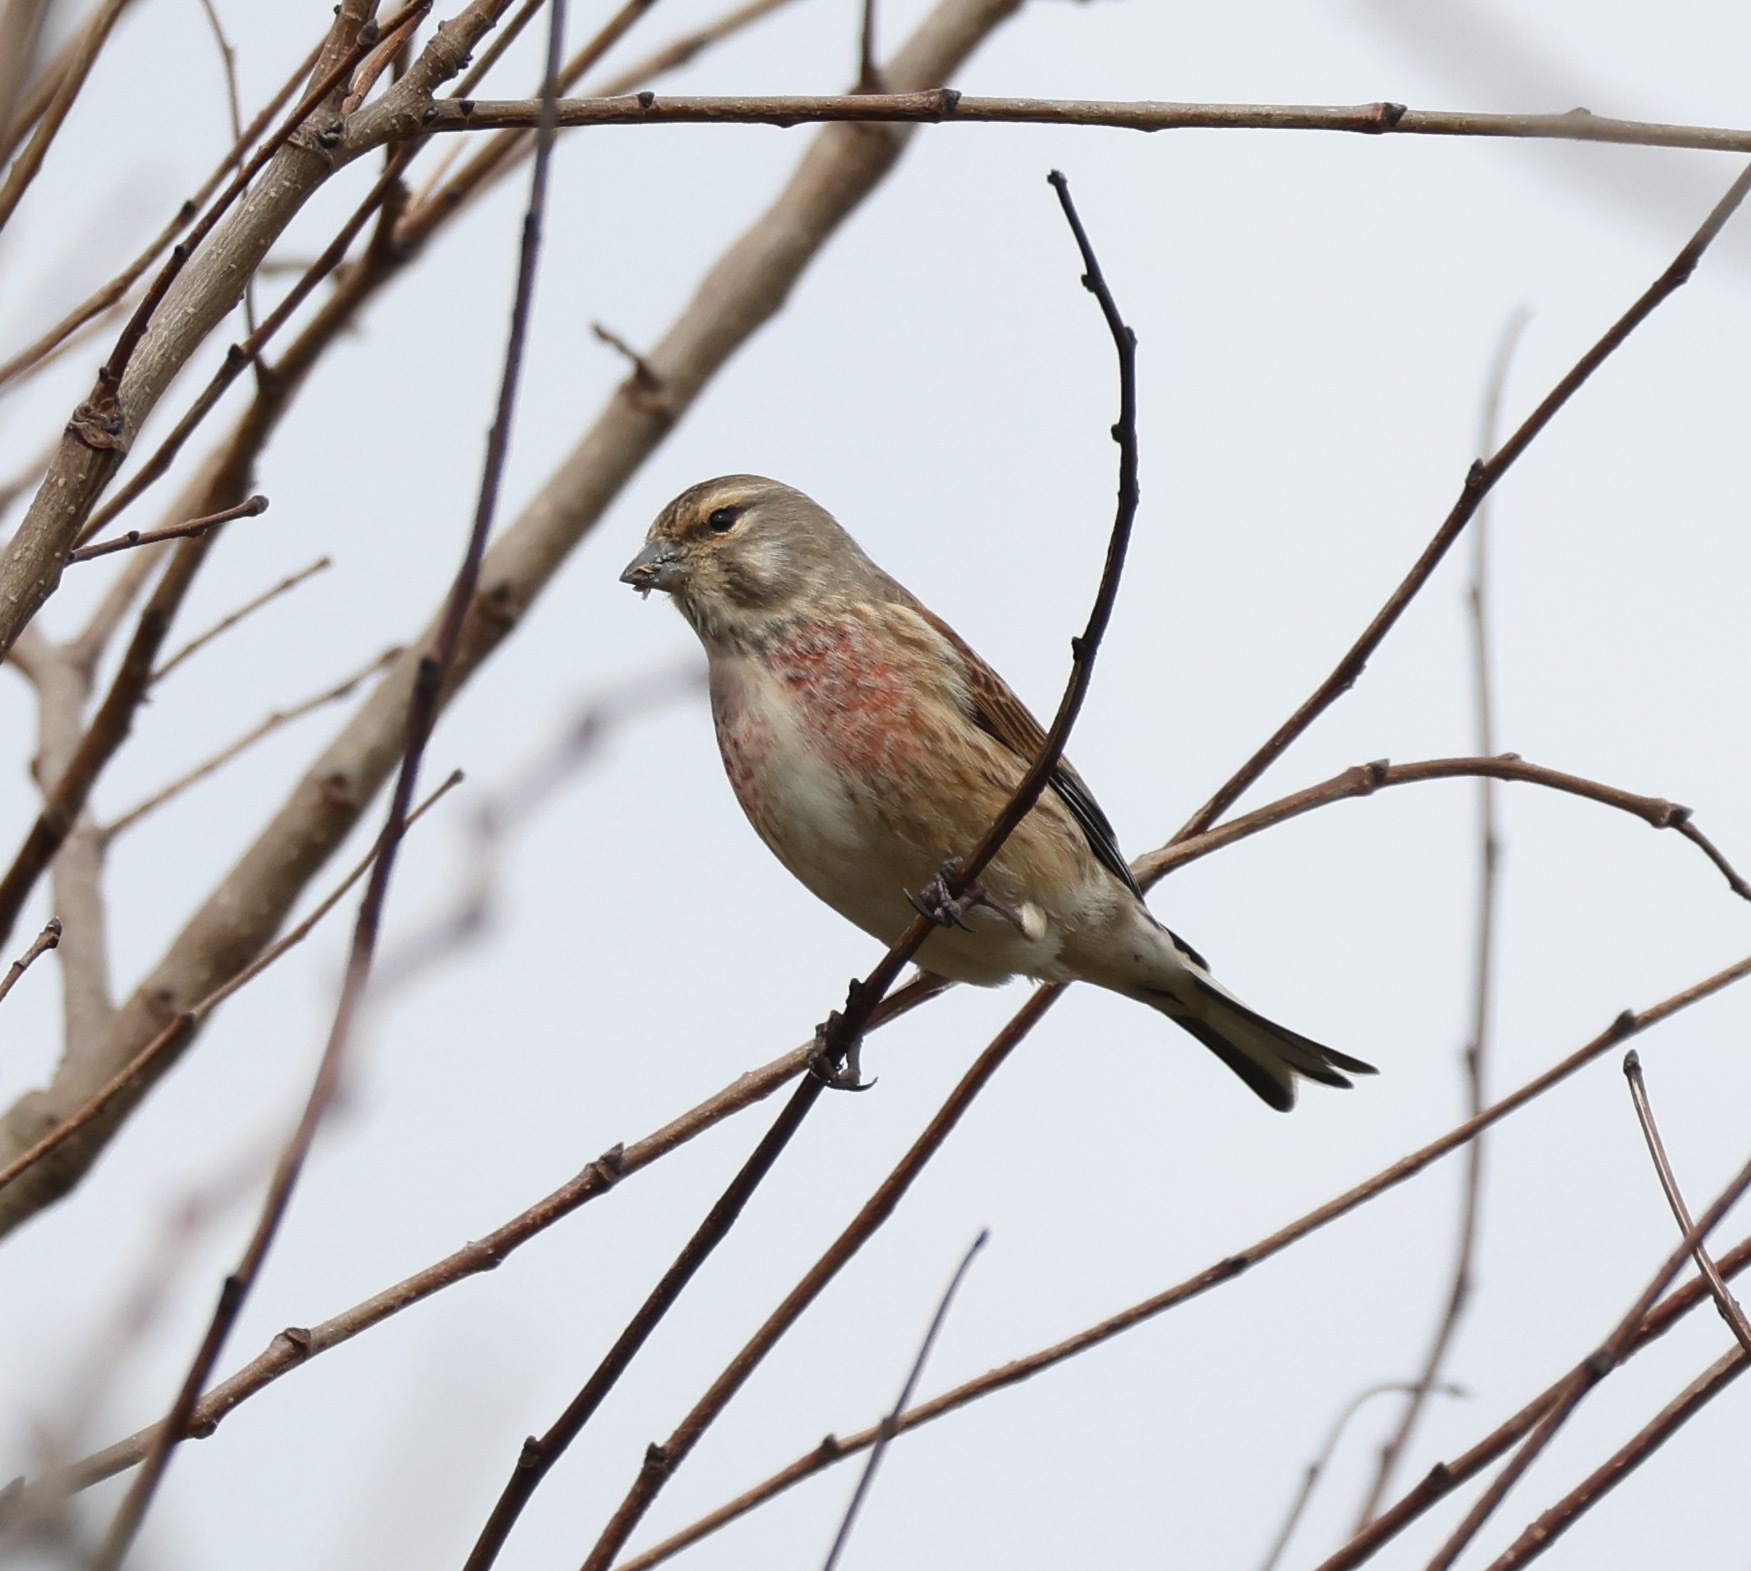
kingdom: Animalia
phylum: Chordata
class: Aves
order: Passeriformes
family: Fringillidae
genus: Linaria
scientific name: Linaria cannabina
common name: Common linnet
